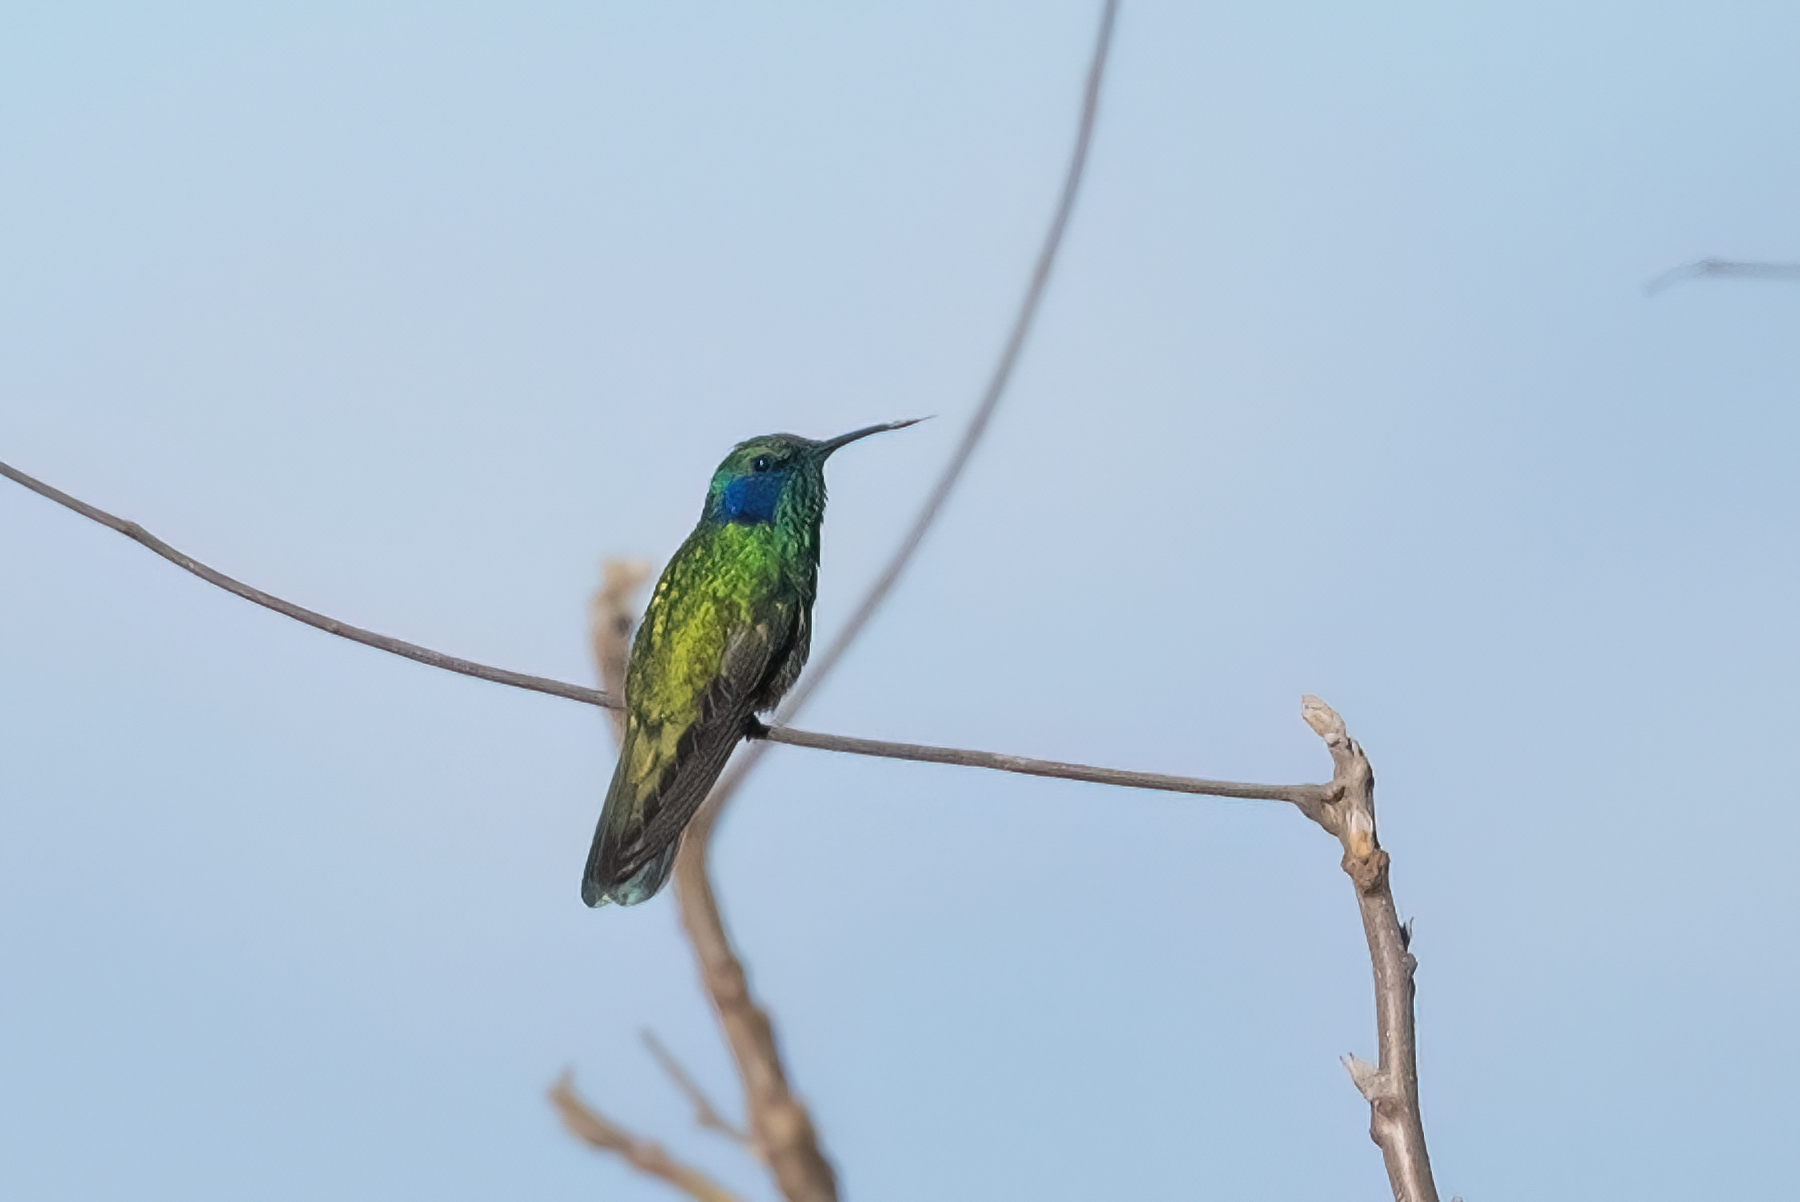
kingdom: Animalia
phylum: Chordata
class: Aves
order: Apodiformes
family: Trochilidae
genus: Colibri
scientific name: Colibri thalassinus
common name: Green violetear
